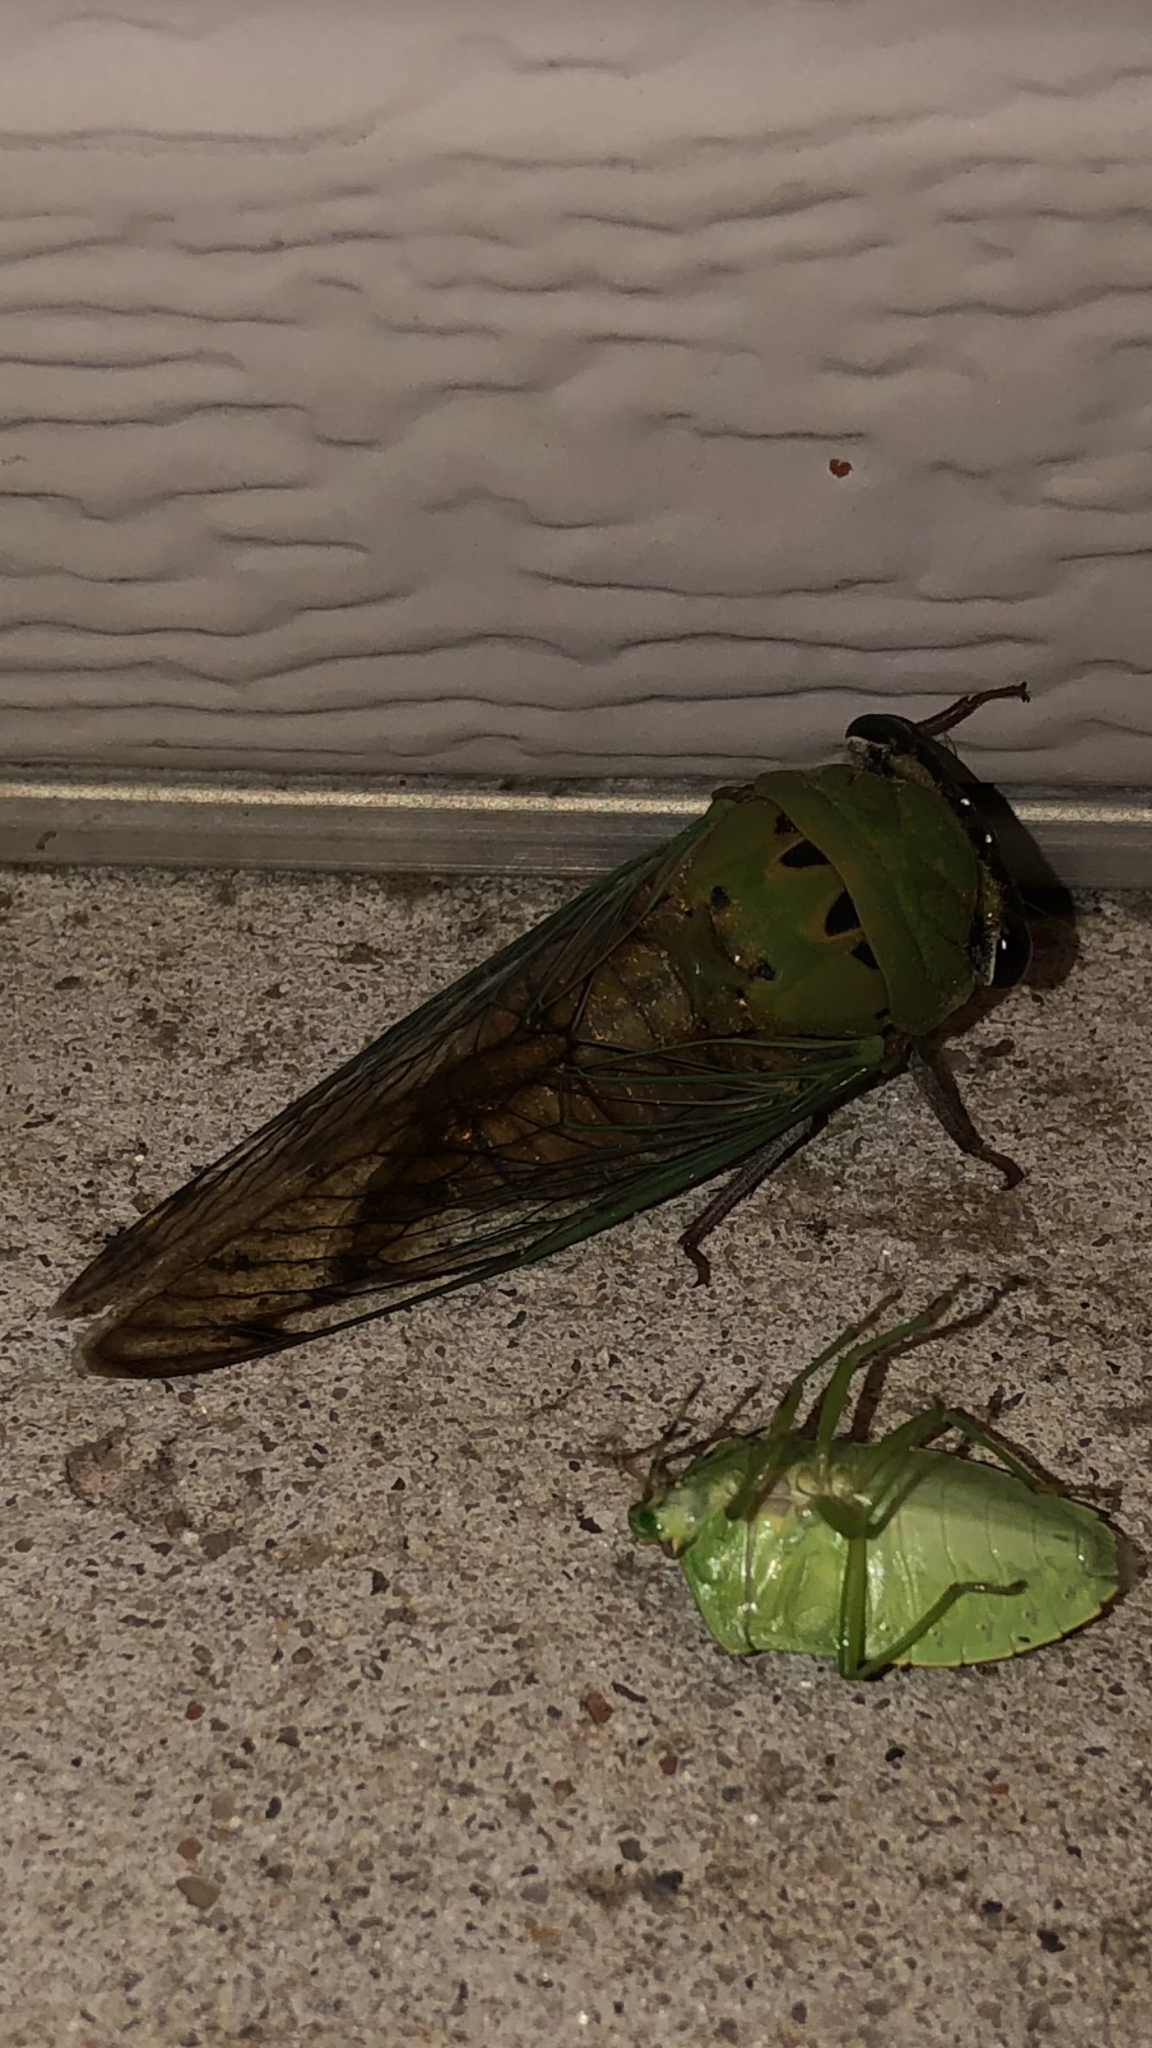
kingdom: Animalia
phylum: Arthropoda
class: Insecta
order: Hemiptera
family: Cicadidae
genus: Neotibicen
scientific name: Neotibicen superbus
